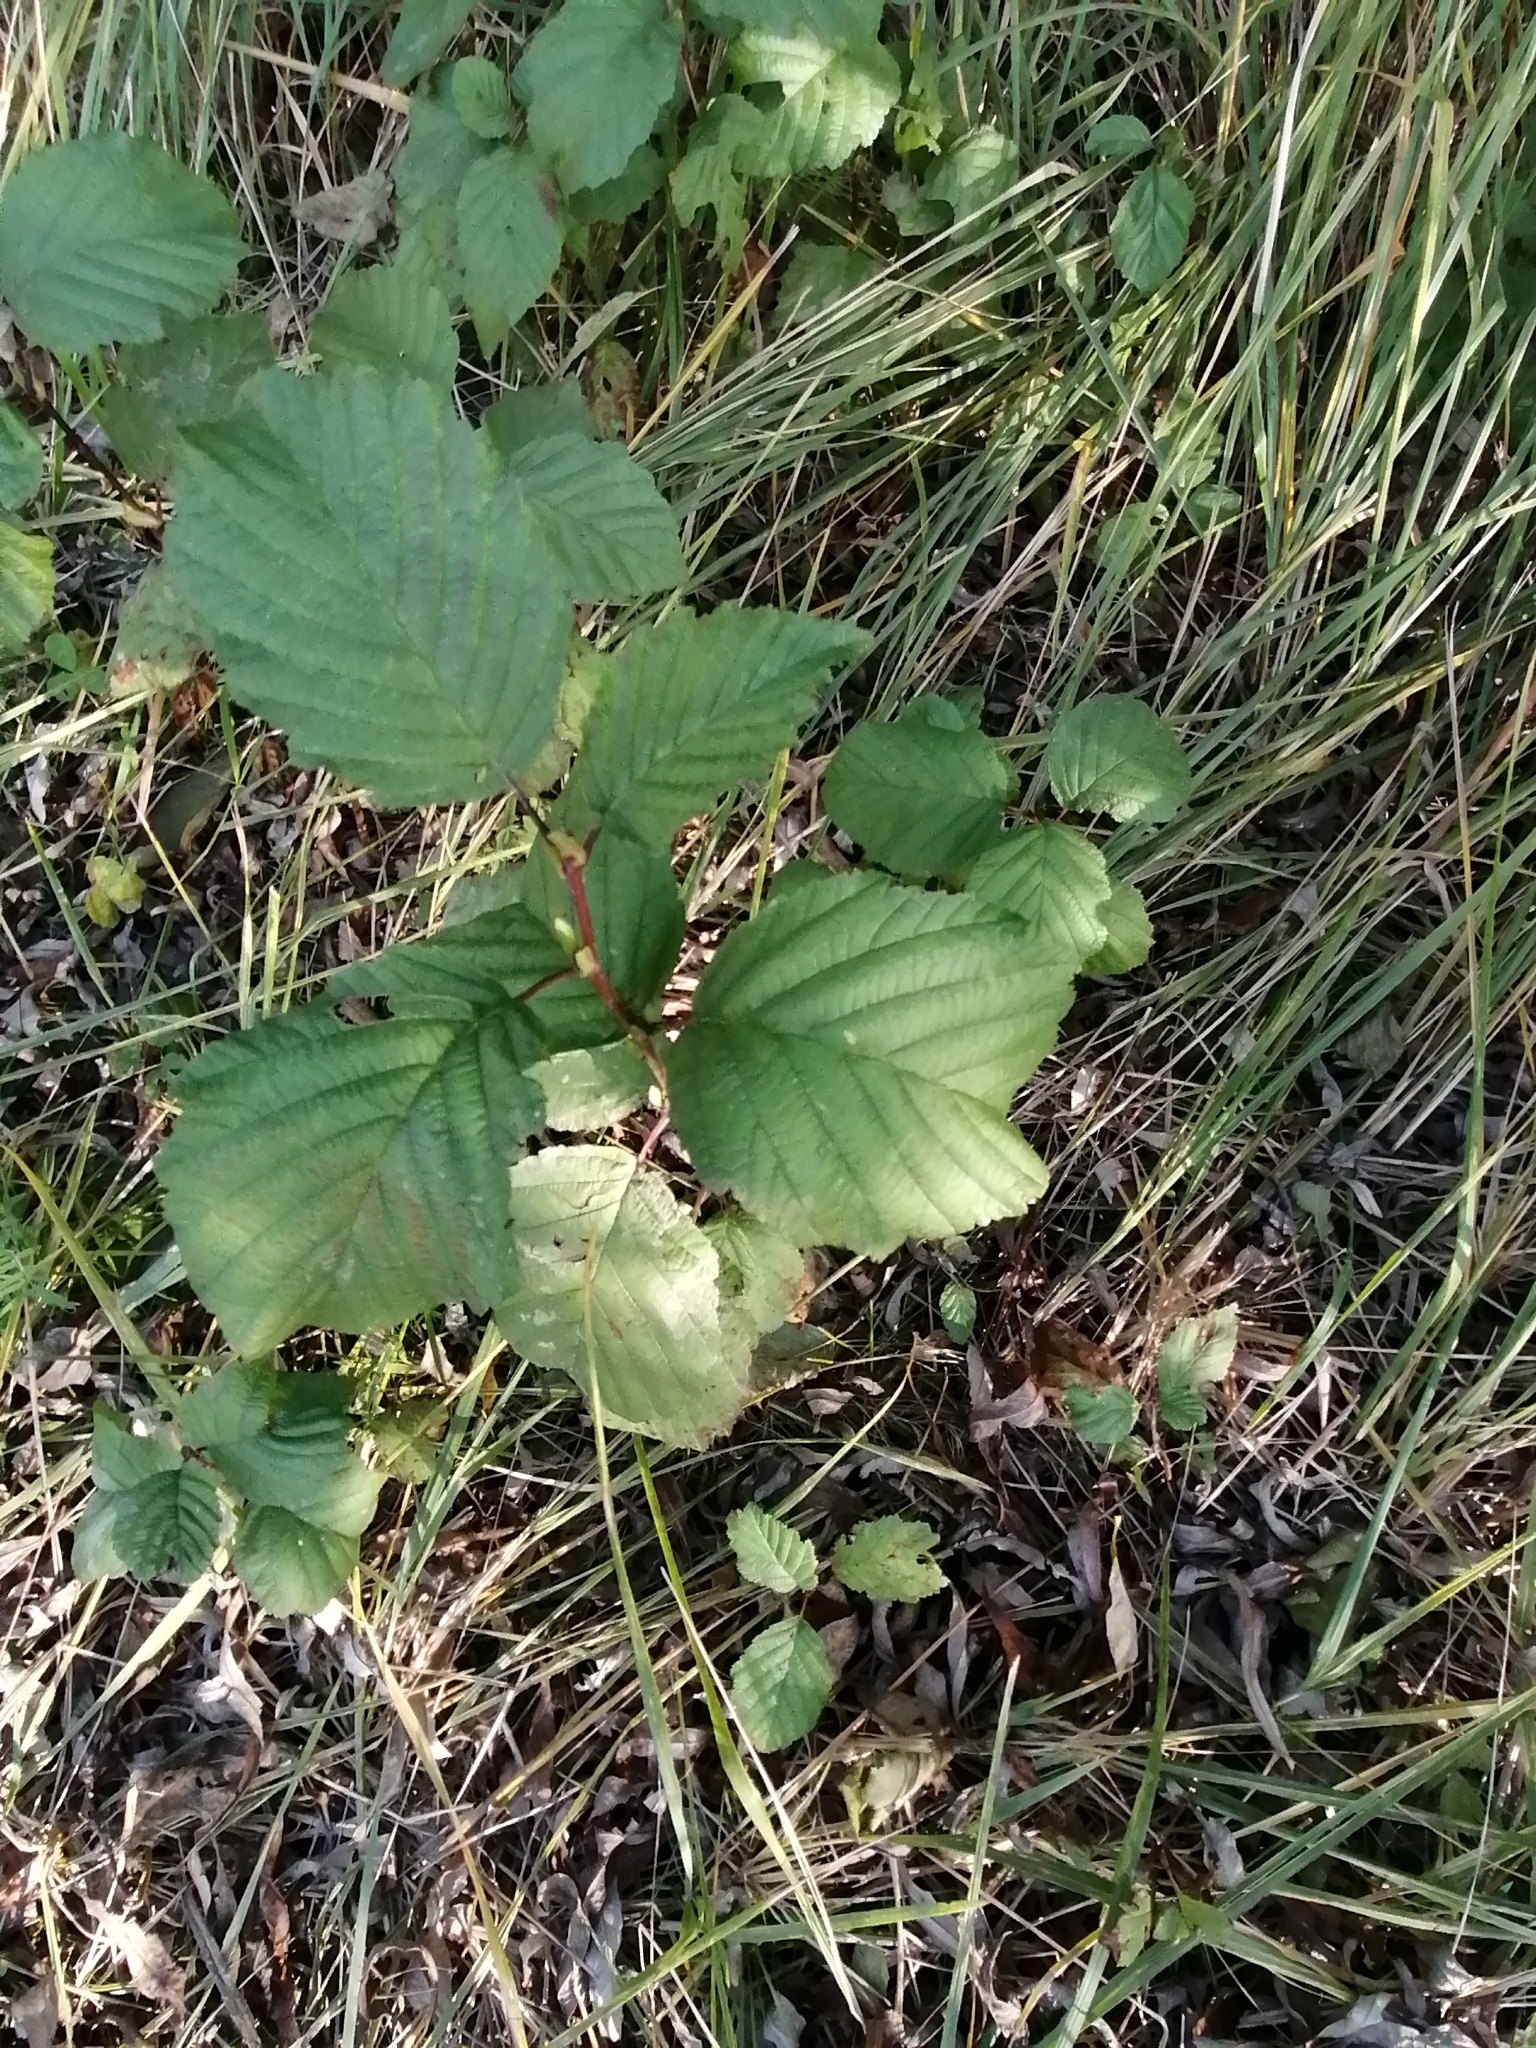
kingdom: Plantae
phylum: Tracheophyta
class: Magnoliopsida
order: Fagales
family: Betulaceae
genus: Alnus
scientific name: Alnus incana
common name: Grey alder
